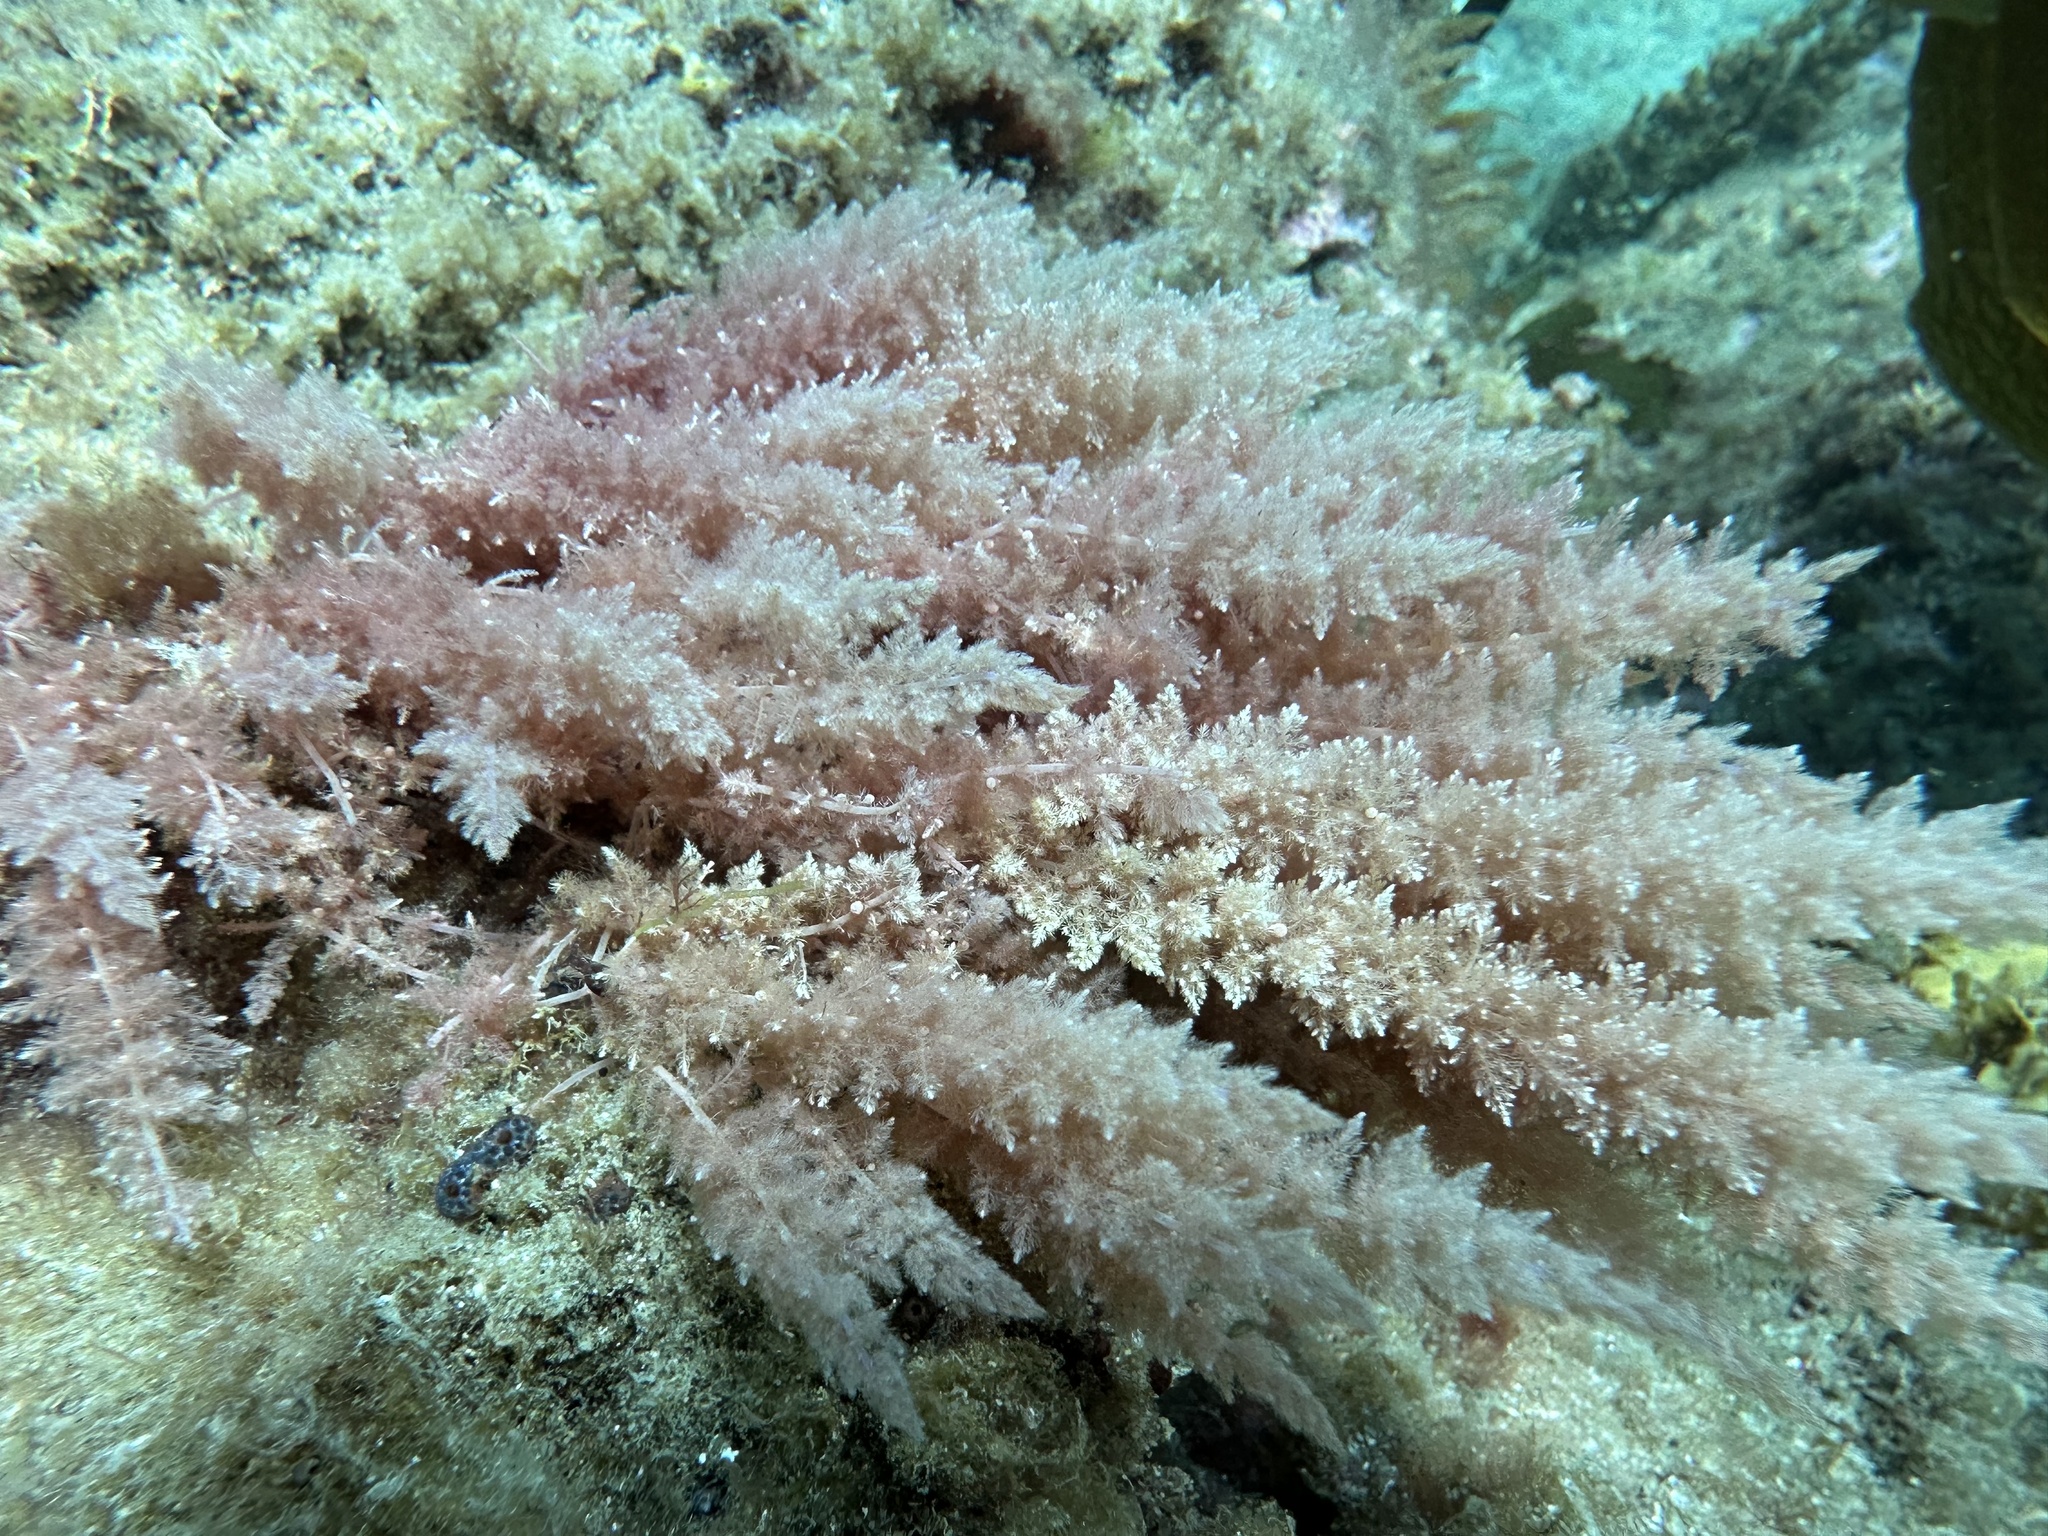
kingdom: Plantae
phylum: Rhodophyta
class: Florideophyceae
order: Bonnemaisoniales
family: Bonnemaisoniaceae
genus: Asparagopsis
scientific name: Asparagopsis armata
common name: Harpoon weed
